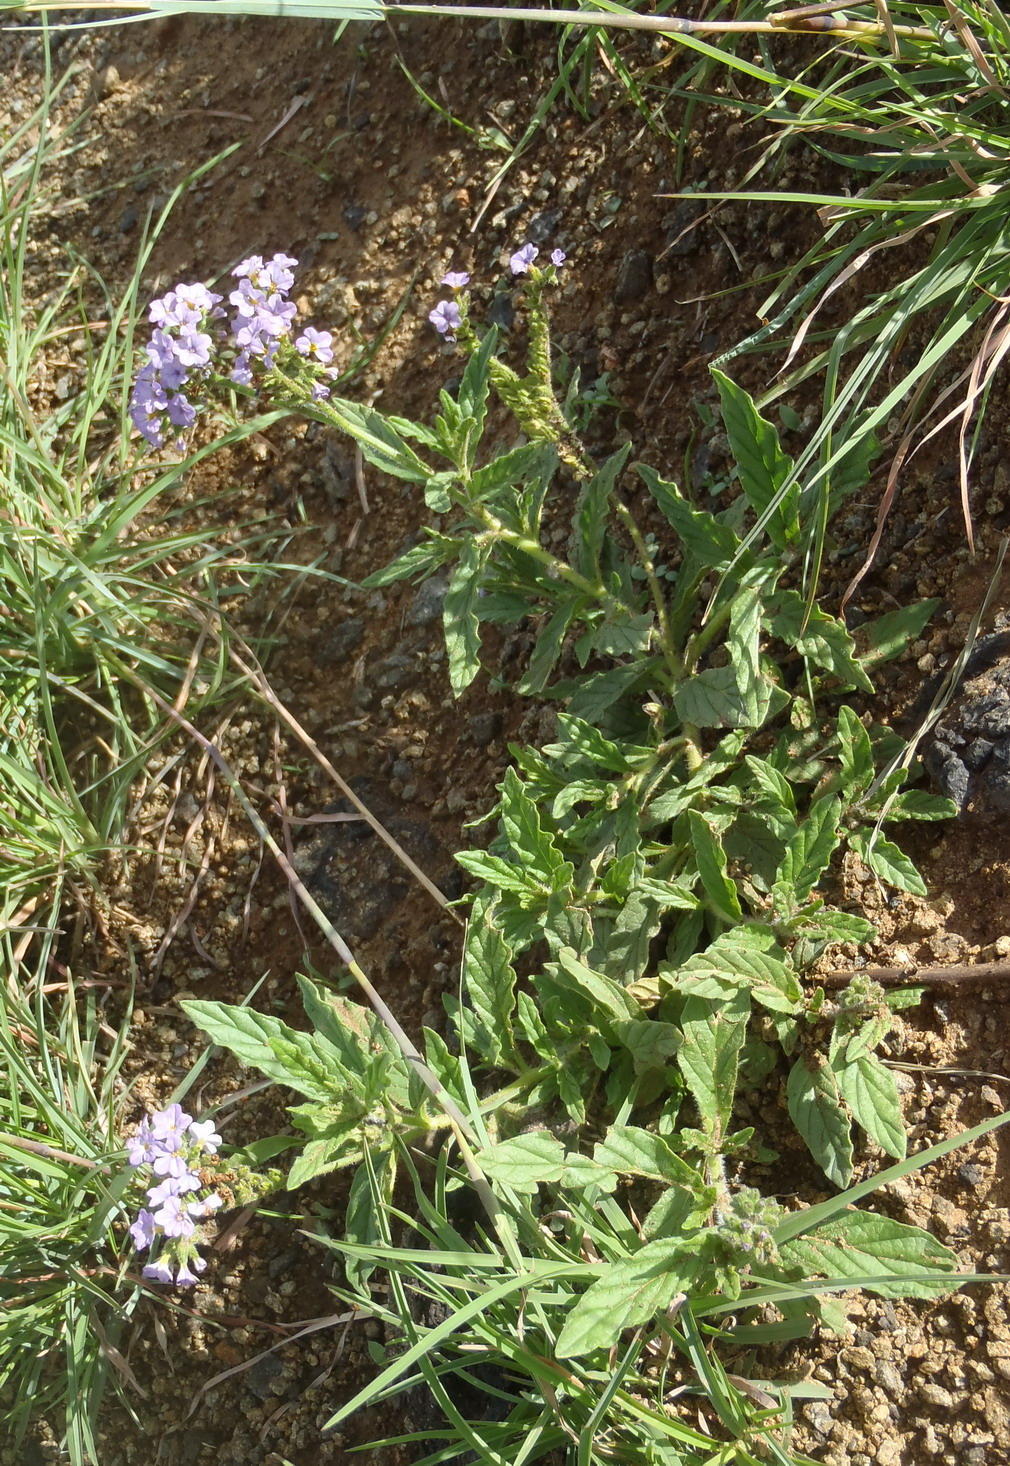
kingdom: Plantae
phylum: Tracheophyta
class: Magnoliopsida
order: Boraginales
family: Heliotropiaceae
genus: Heliotropium
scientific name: Heliotropium amplexicaule
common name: Clasping heliotrope
